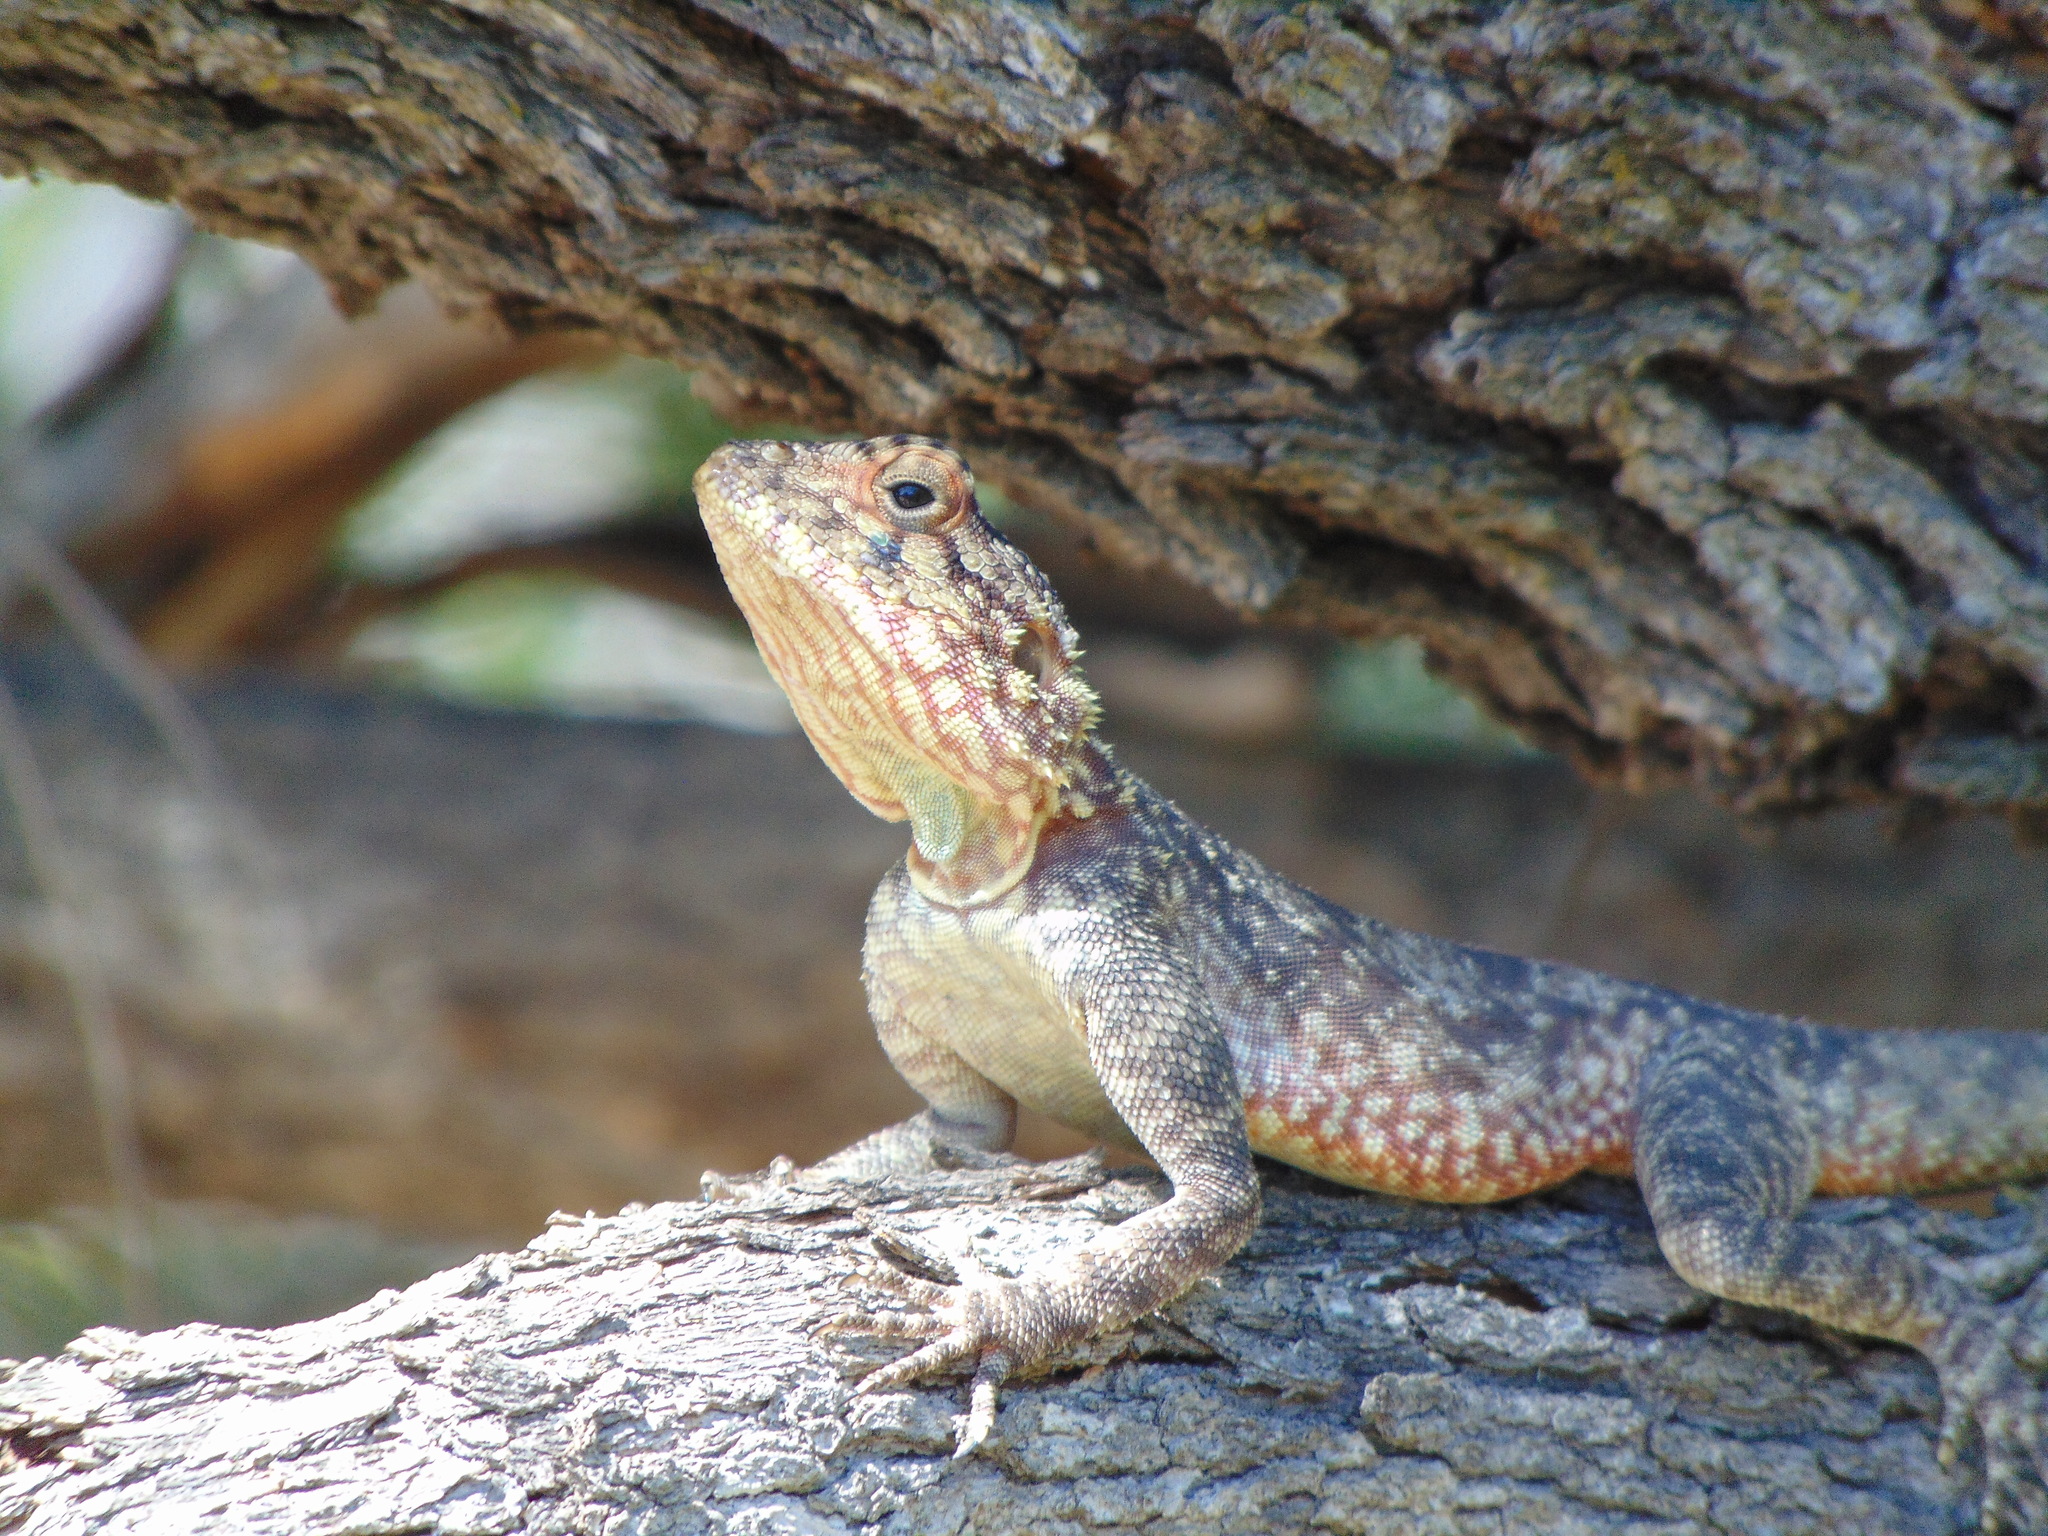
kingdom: Animalia
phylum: Chordata
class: Squamata
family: Agamidae
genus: Agama
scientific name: Agama atra
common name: Southern african rock agama
